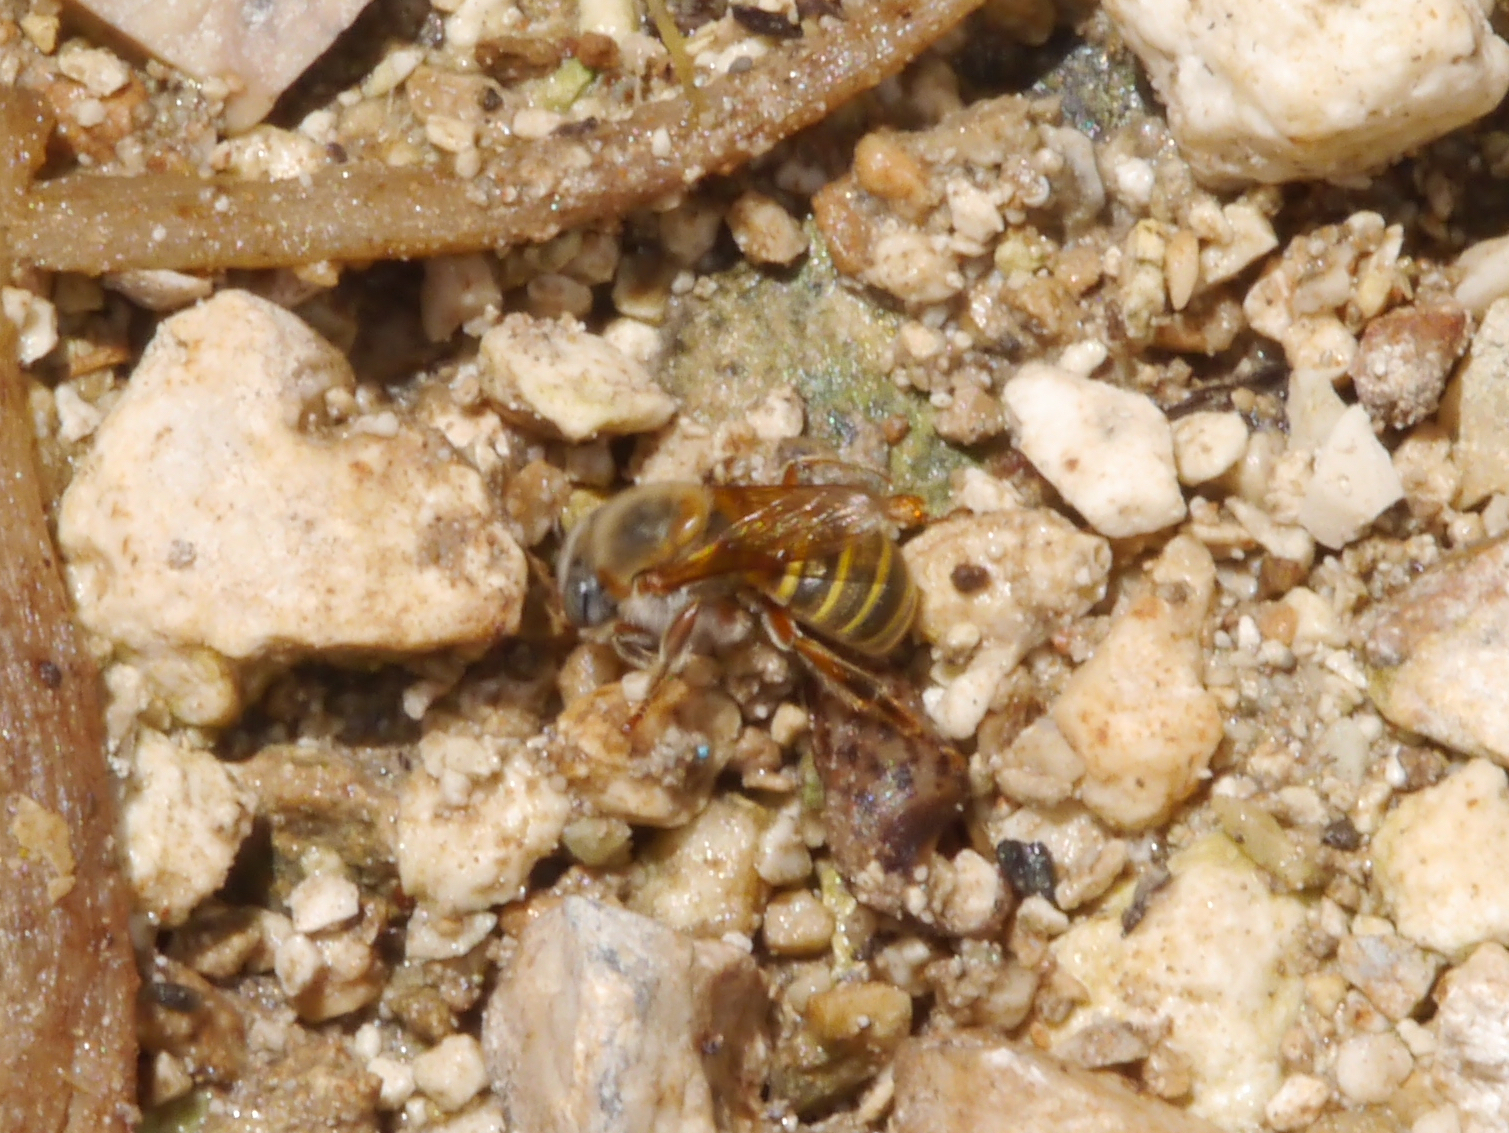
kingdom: Animalia
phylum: Arthropoda
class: Insecta
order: Hymenoptera
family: Apidae
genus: Melipona
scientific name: Melipona beecheii
